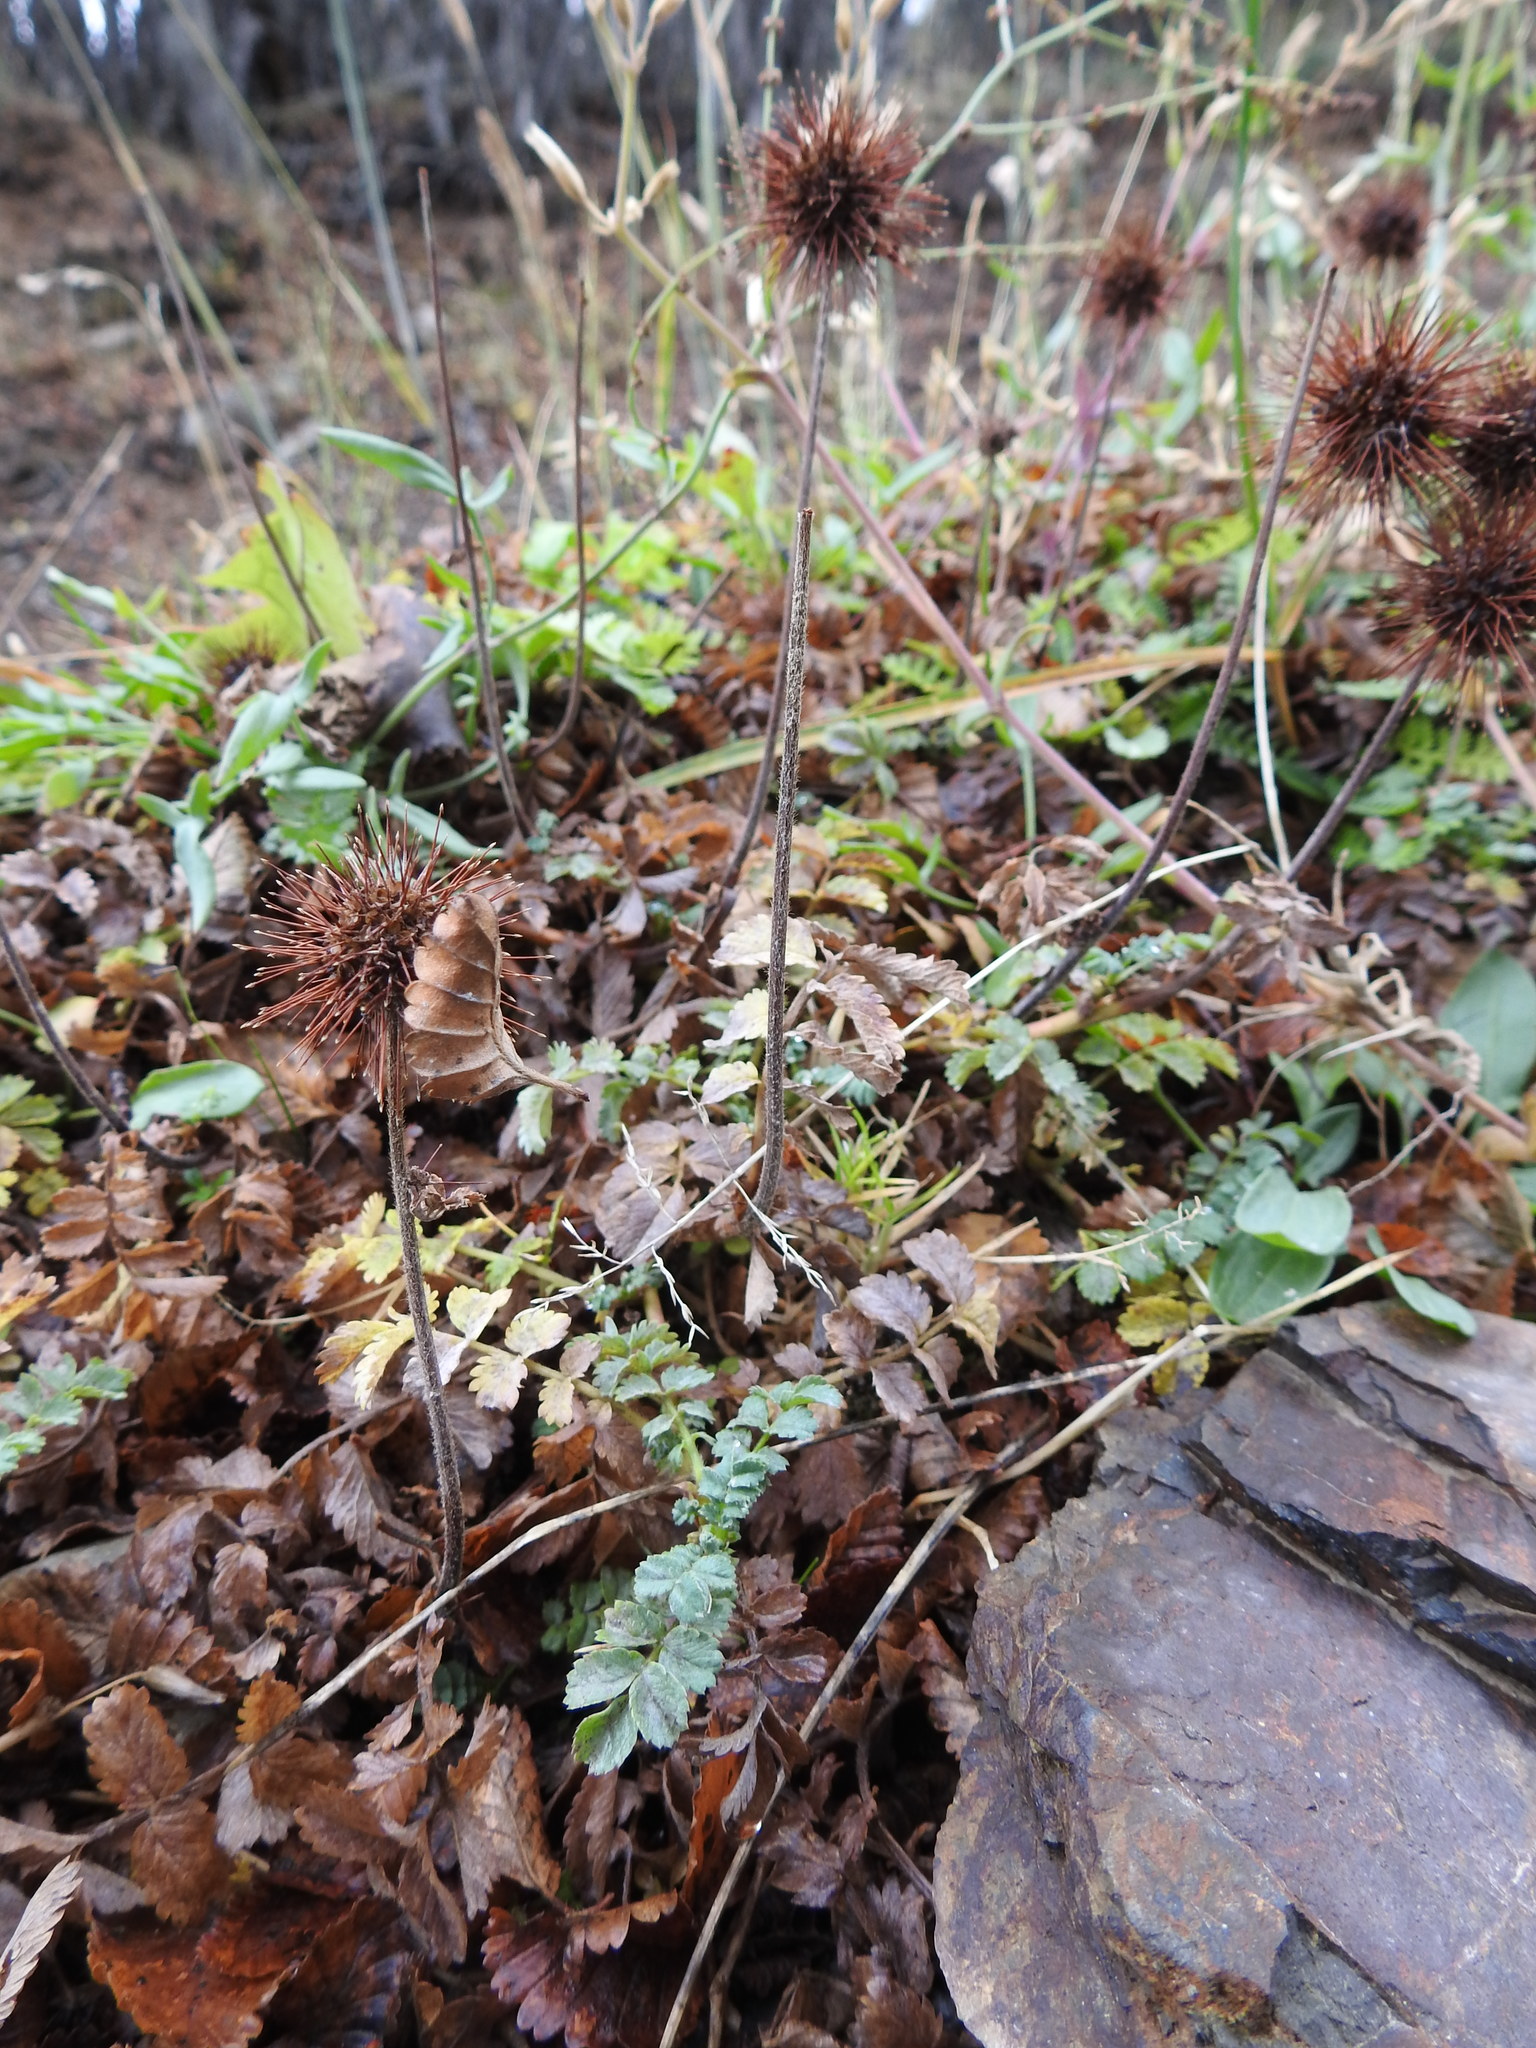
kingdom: Plantae
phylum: Tracheophyta
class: Magnoliopsida
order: Rosales
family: Rosaceae
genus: Acaena
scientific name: Acaena magellanica
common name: New zealand burr
